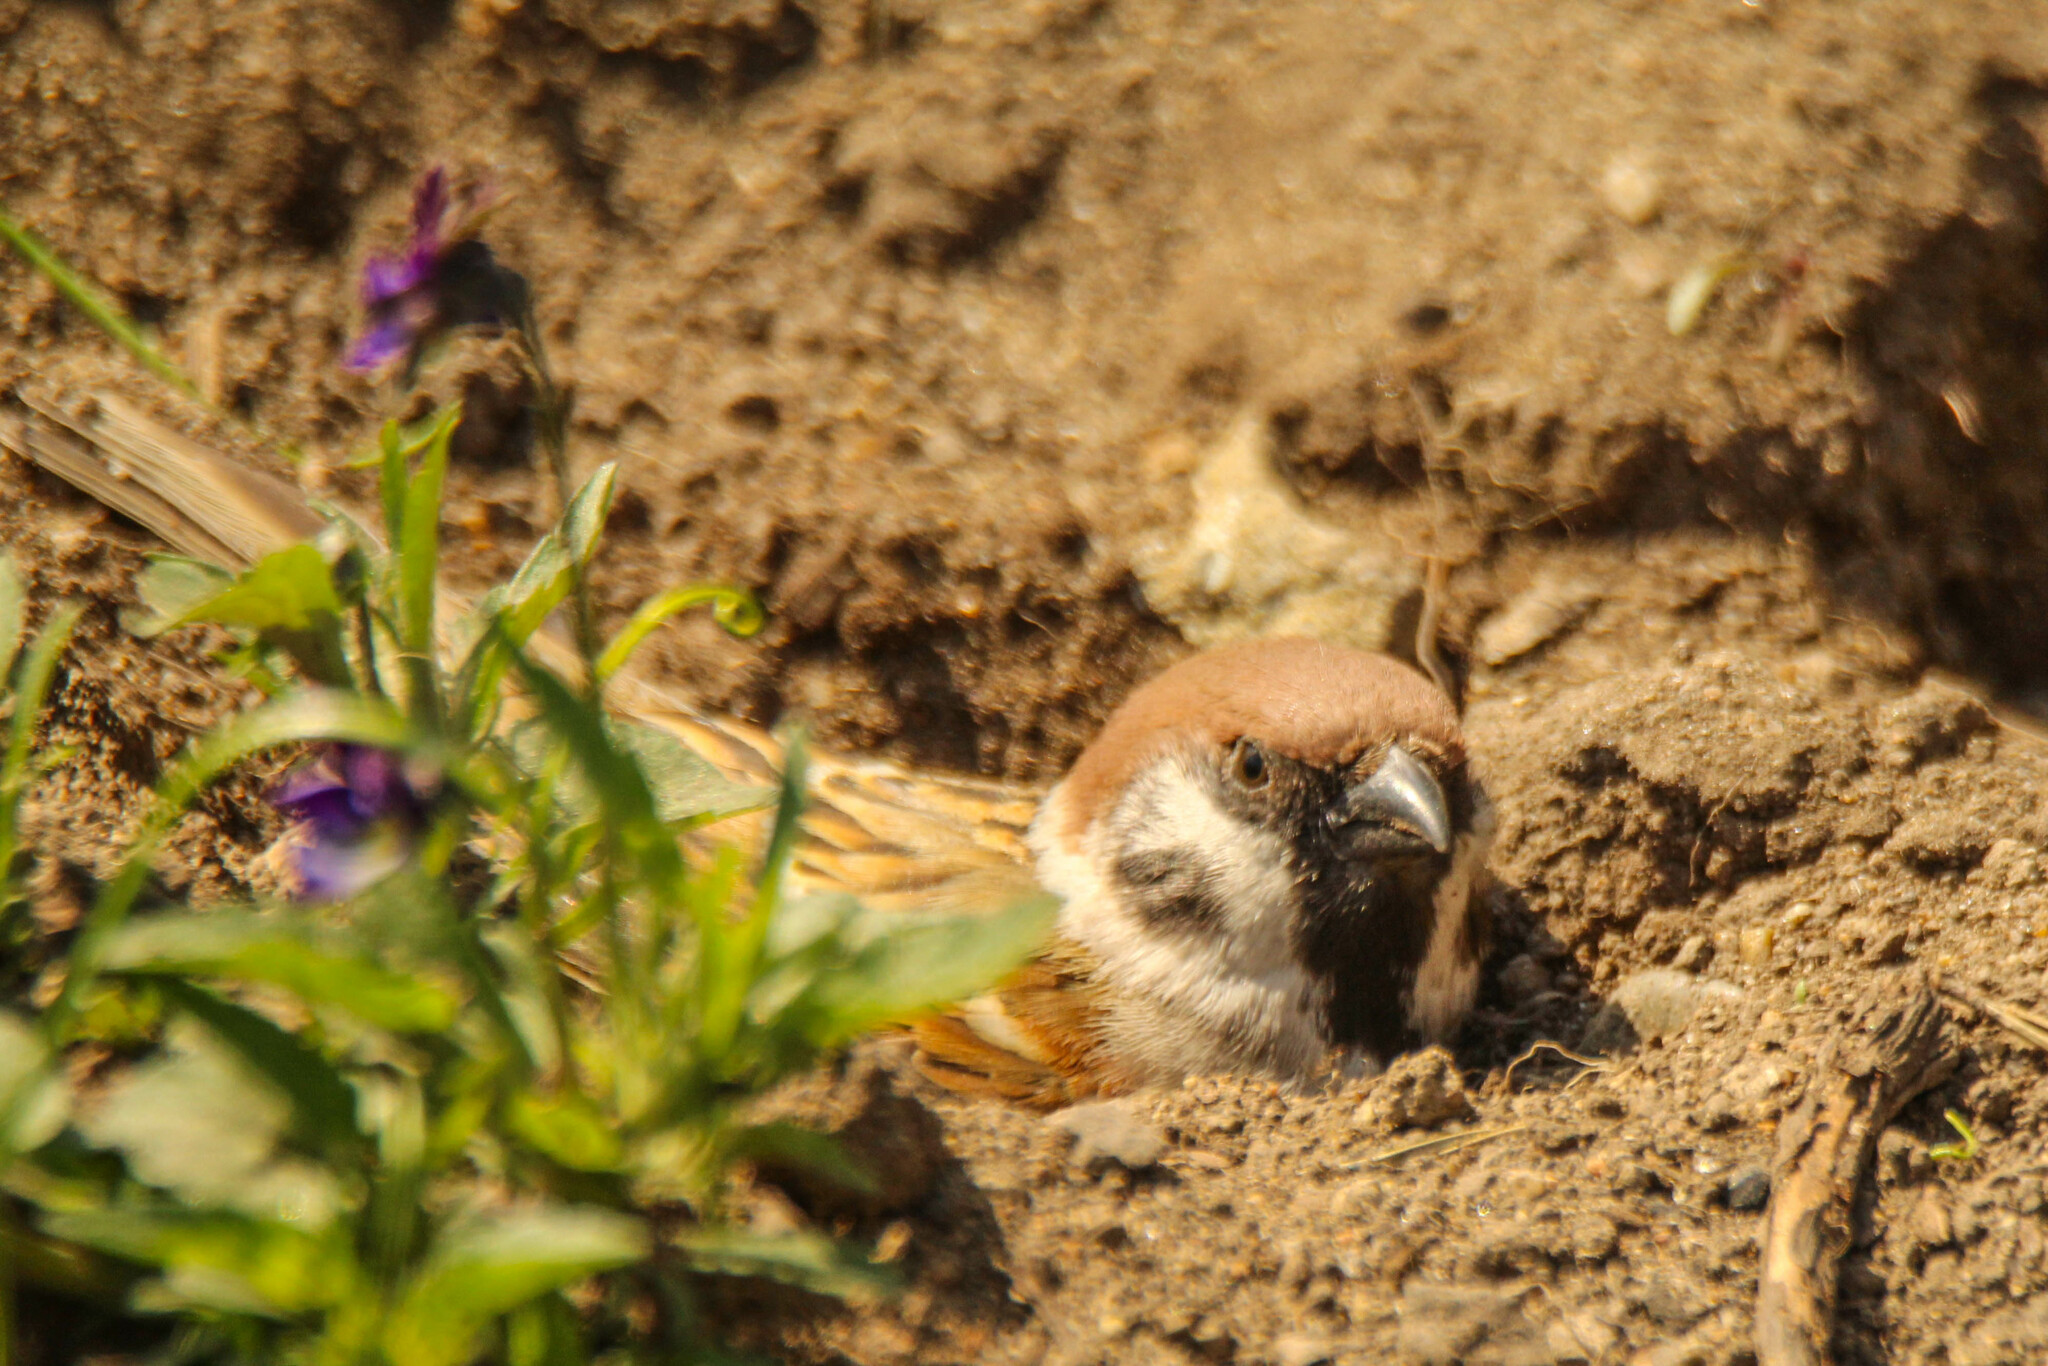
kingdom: Animalia
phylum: Chordata
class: Aves
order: Passeriformes
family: Passeridae
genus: Passer
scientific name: Passer montanus
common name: Eurasian tree sparrow
